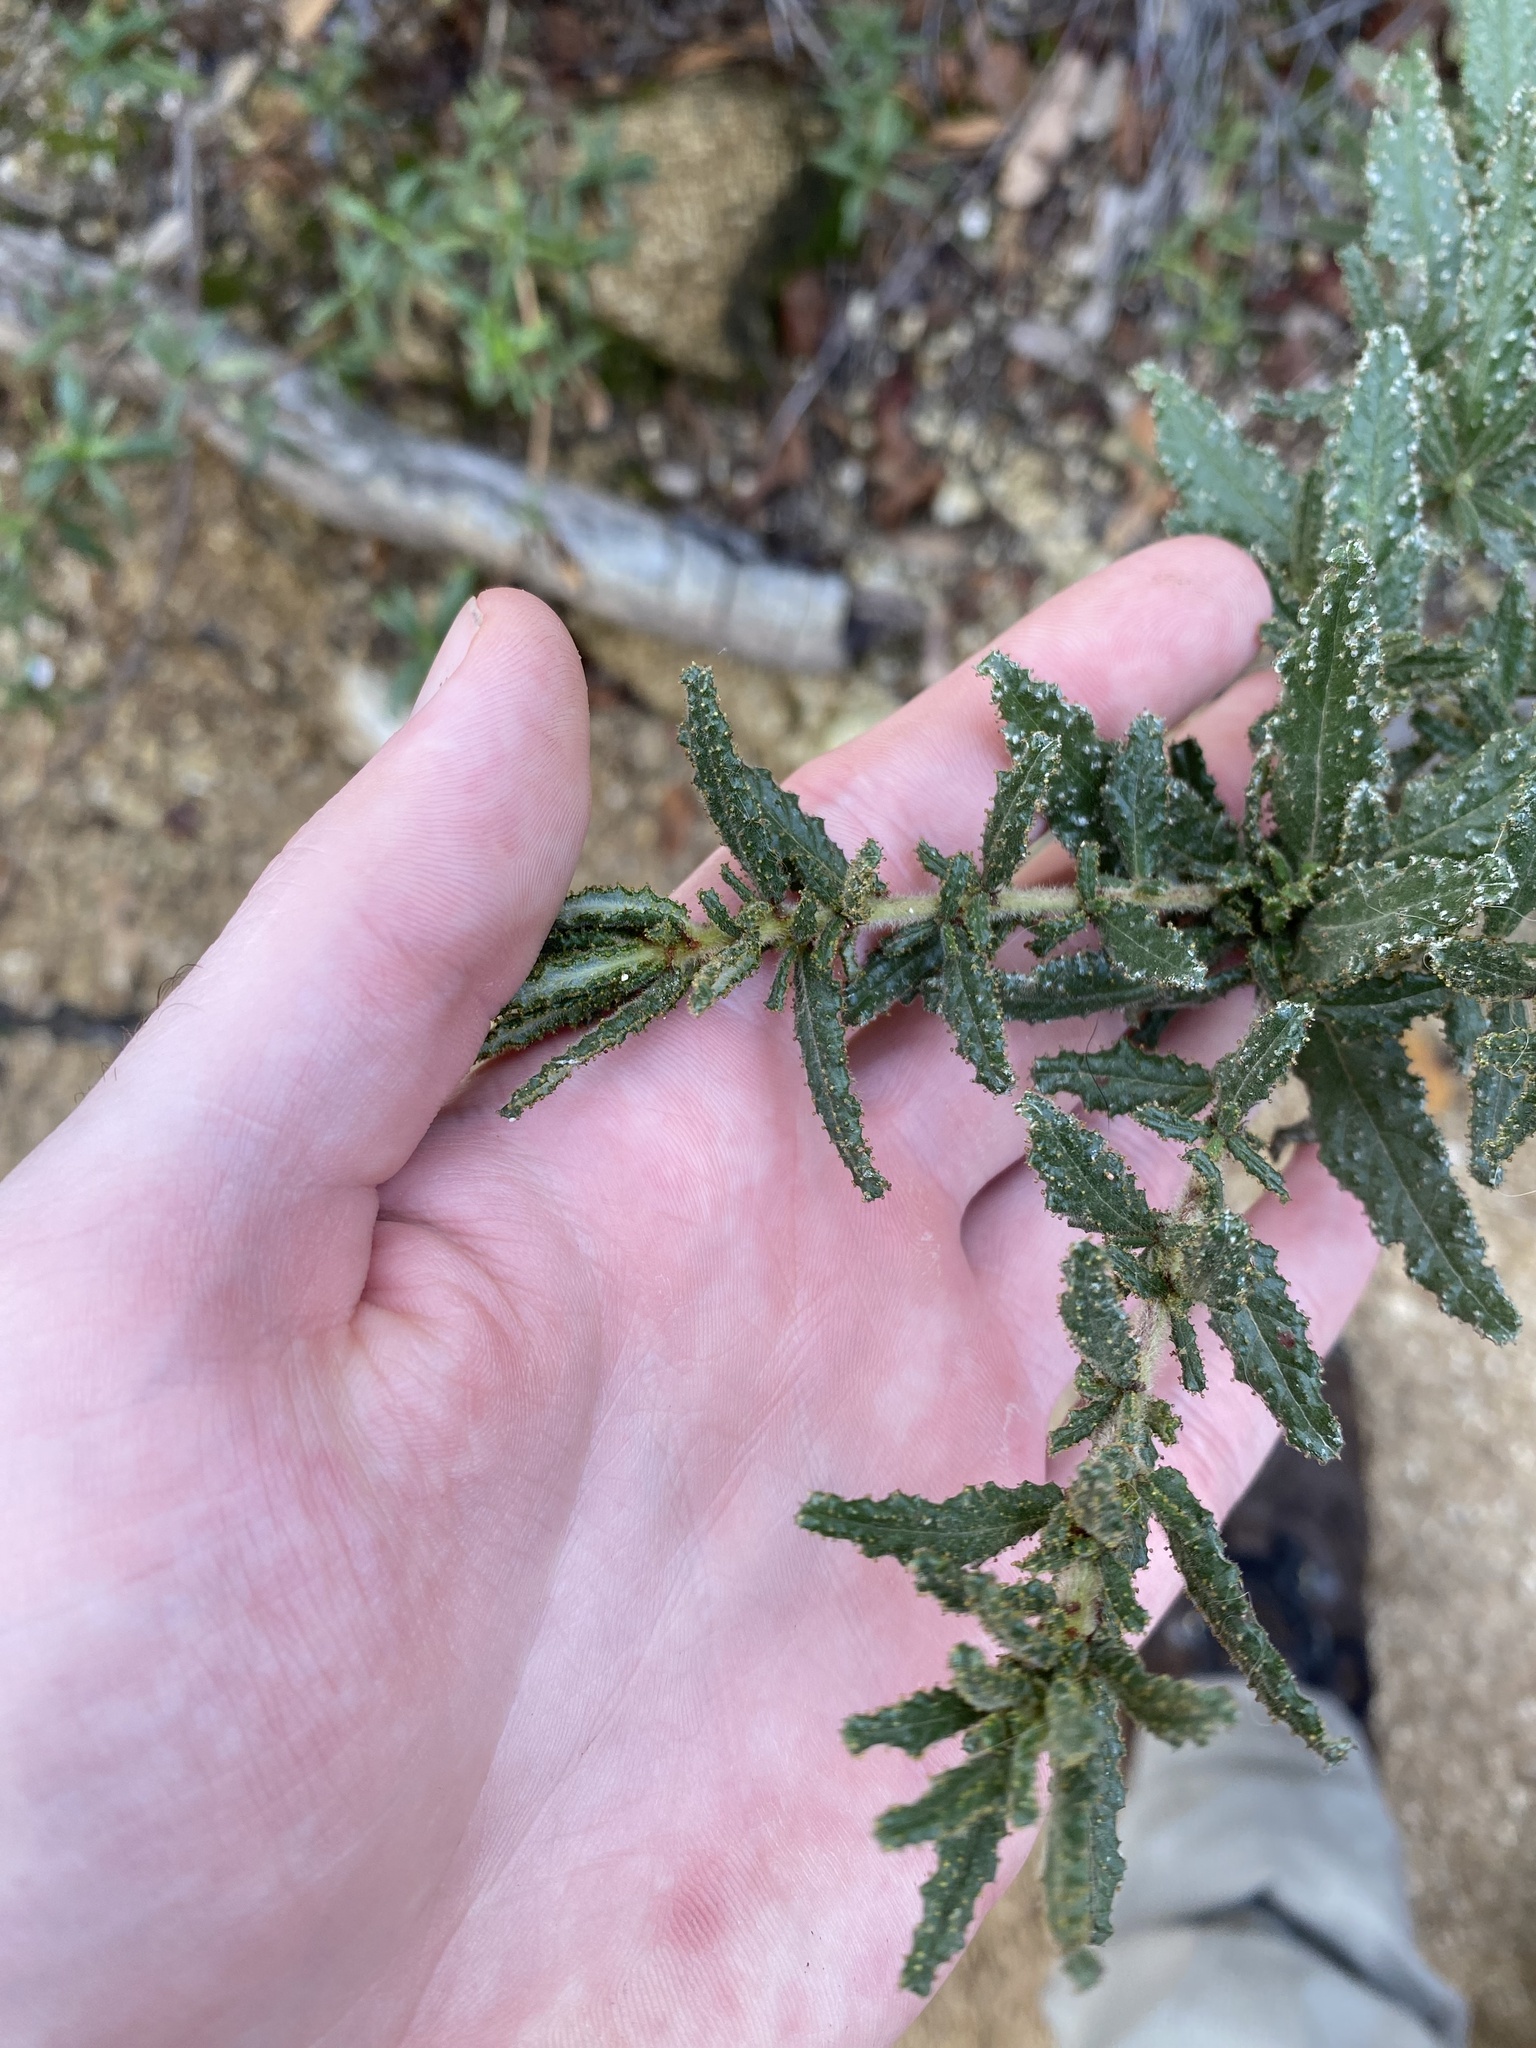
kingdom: Plantae
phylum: Tracheophyta
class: Magnoliopsida
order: Rosales
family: Rhamnaceae
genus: Ceanothus
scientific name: Ceanothus papillosus
